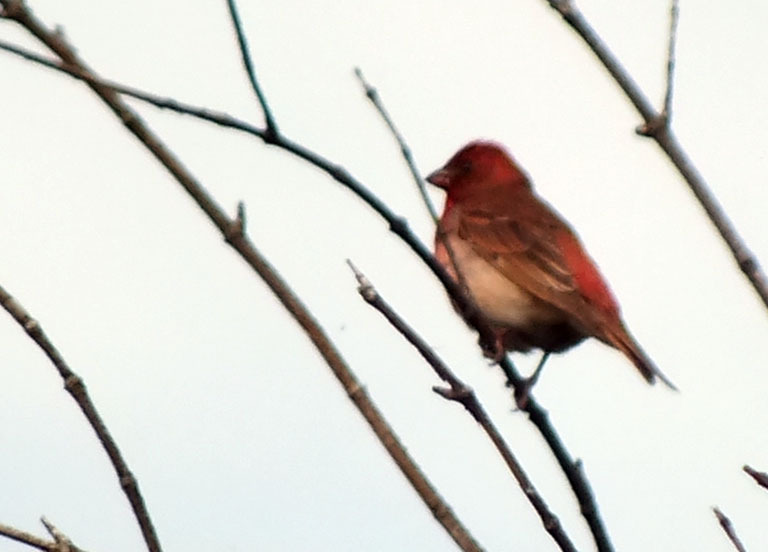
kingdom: Animalia
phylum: Chordata
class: Aves
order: Passeriformes
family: Fringillidae
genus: Carpodacus
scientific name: Carpodacus erythrinus
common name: Common rosefinch
